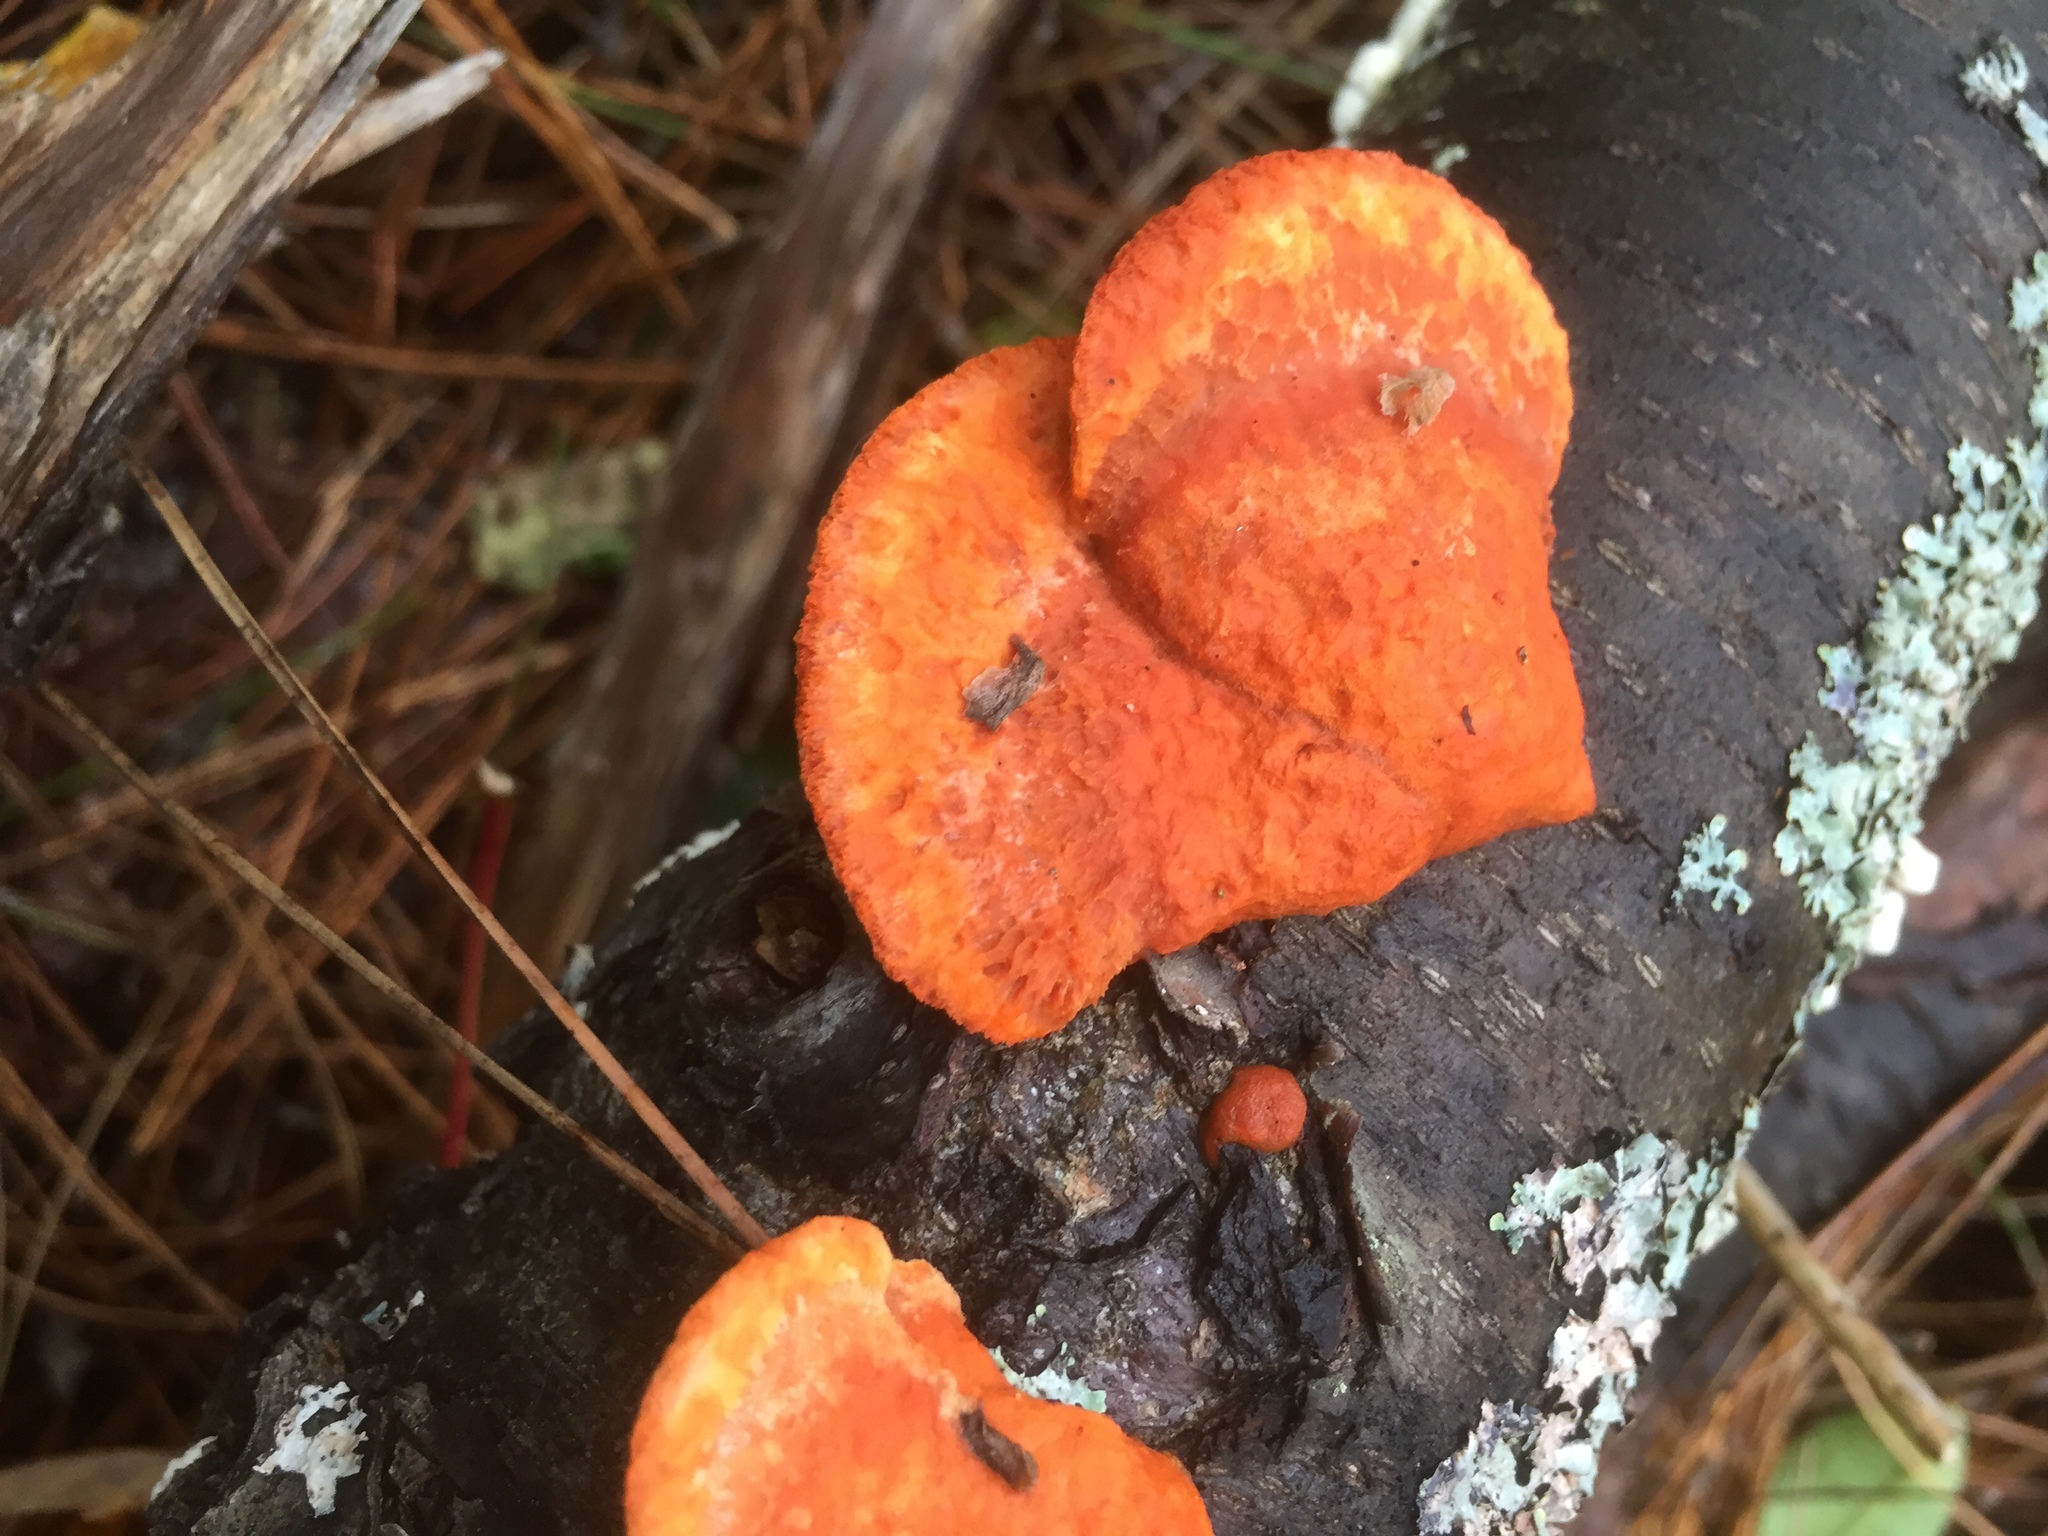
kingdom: Fungi
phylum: Basidiomycota
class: Agaricomycetes
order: Polyporales
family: Polyporaceae
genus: Trametes
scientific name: Trametes cinnabarina
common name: Northern cinnabar polypore
